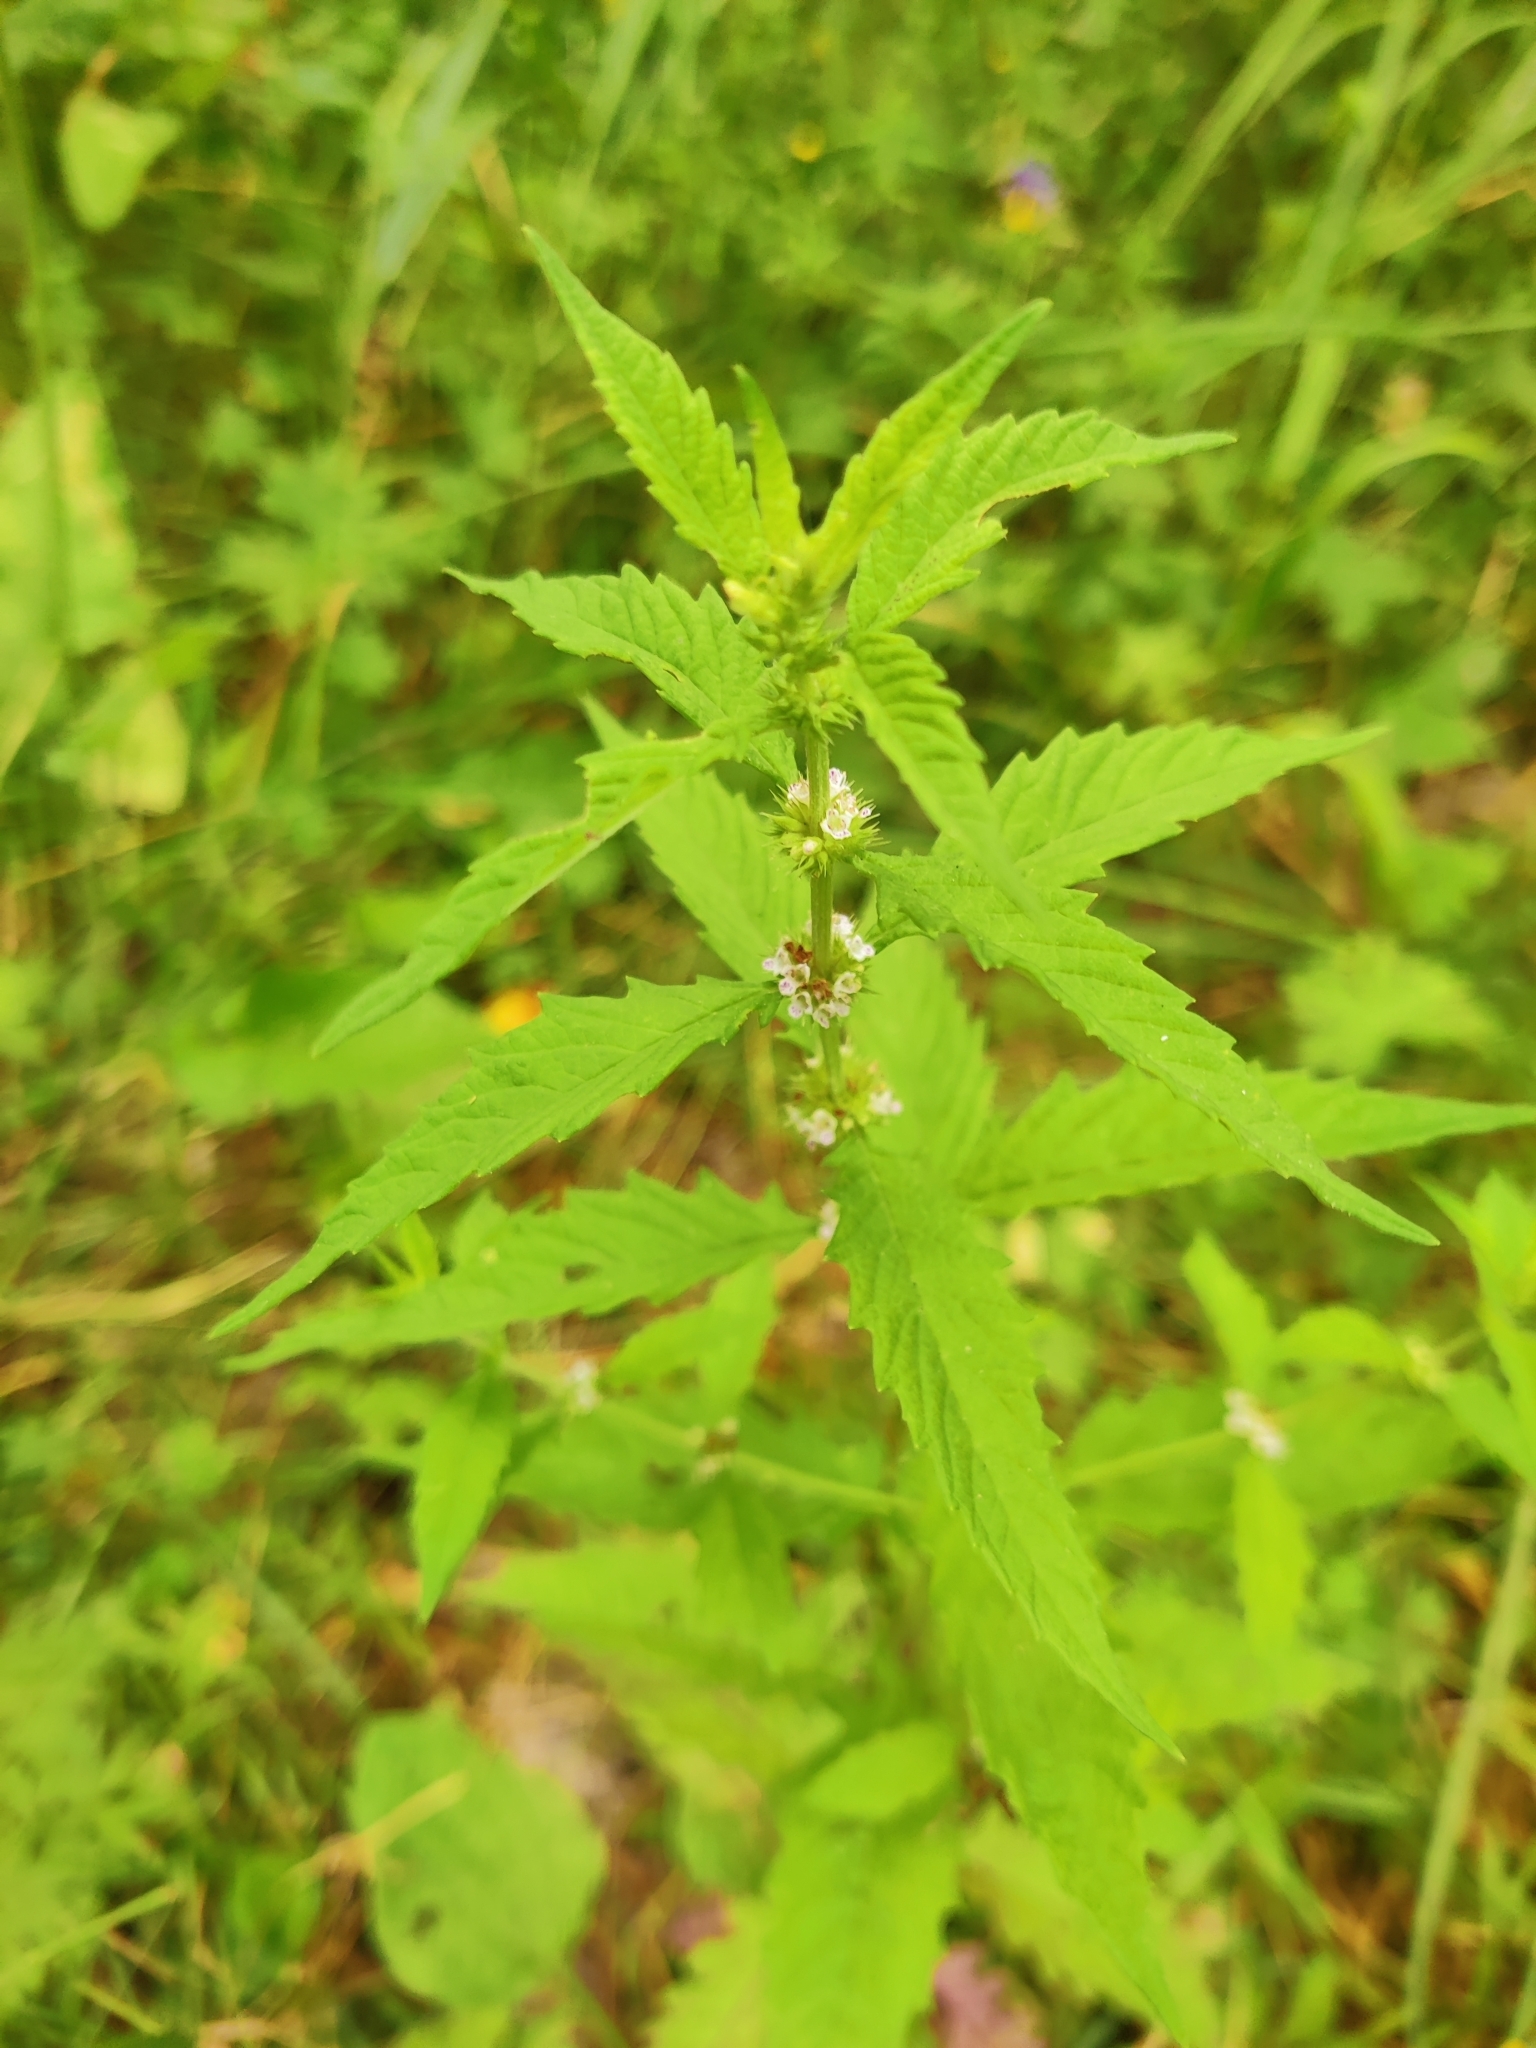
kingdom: Plantae
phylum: Tracheophyta
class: Magnoliopsida
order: Lamiales
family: Lamiaceae
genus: Lycopus
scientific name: Lycopus europaeus
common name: European bugleweed
